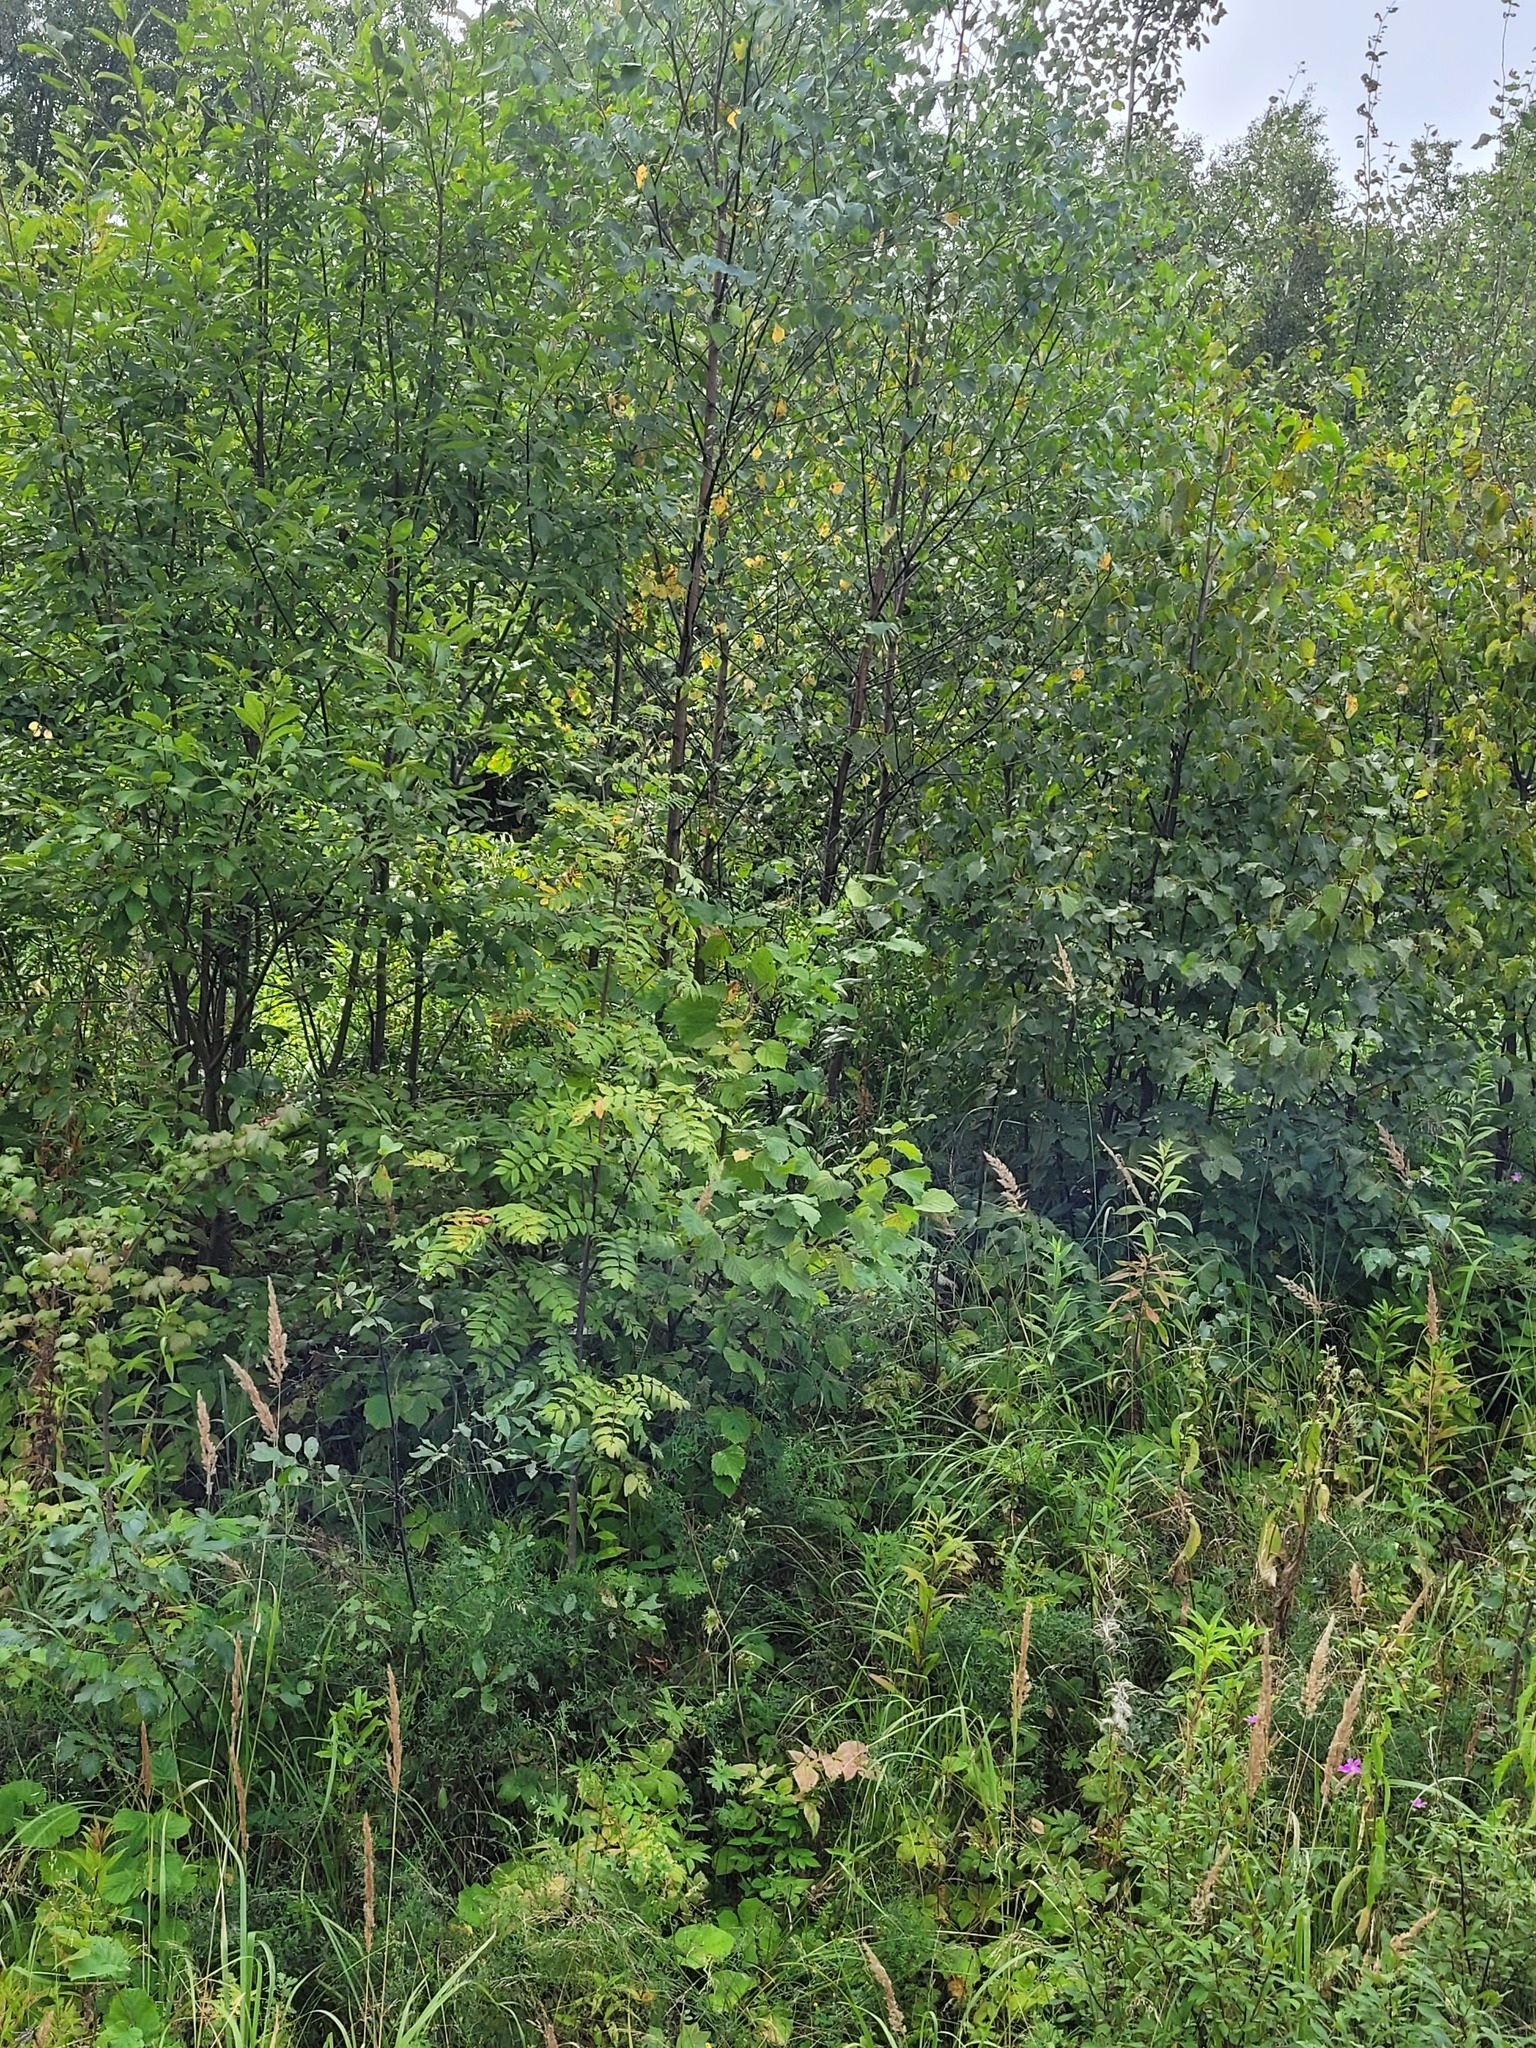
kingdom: Plantae
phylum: Tracheophyta
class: Magnoliopsida
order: Rosales
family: Rosaceae
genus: Sorbus
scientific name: Sorbus aucuparia
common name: Rowan
